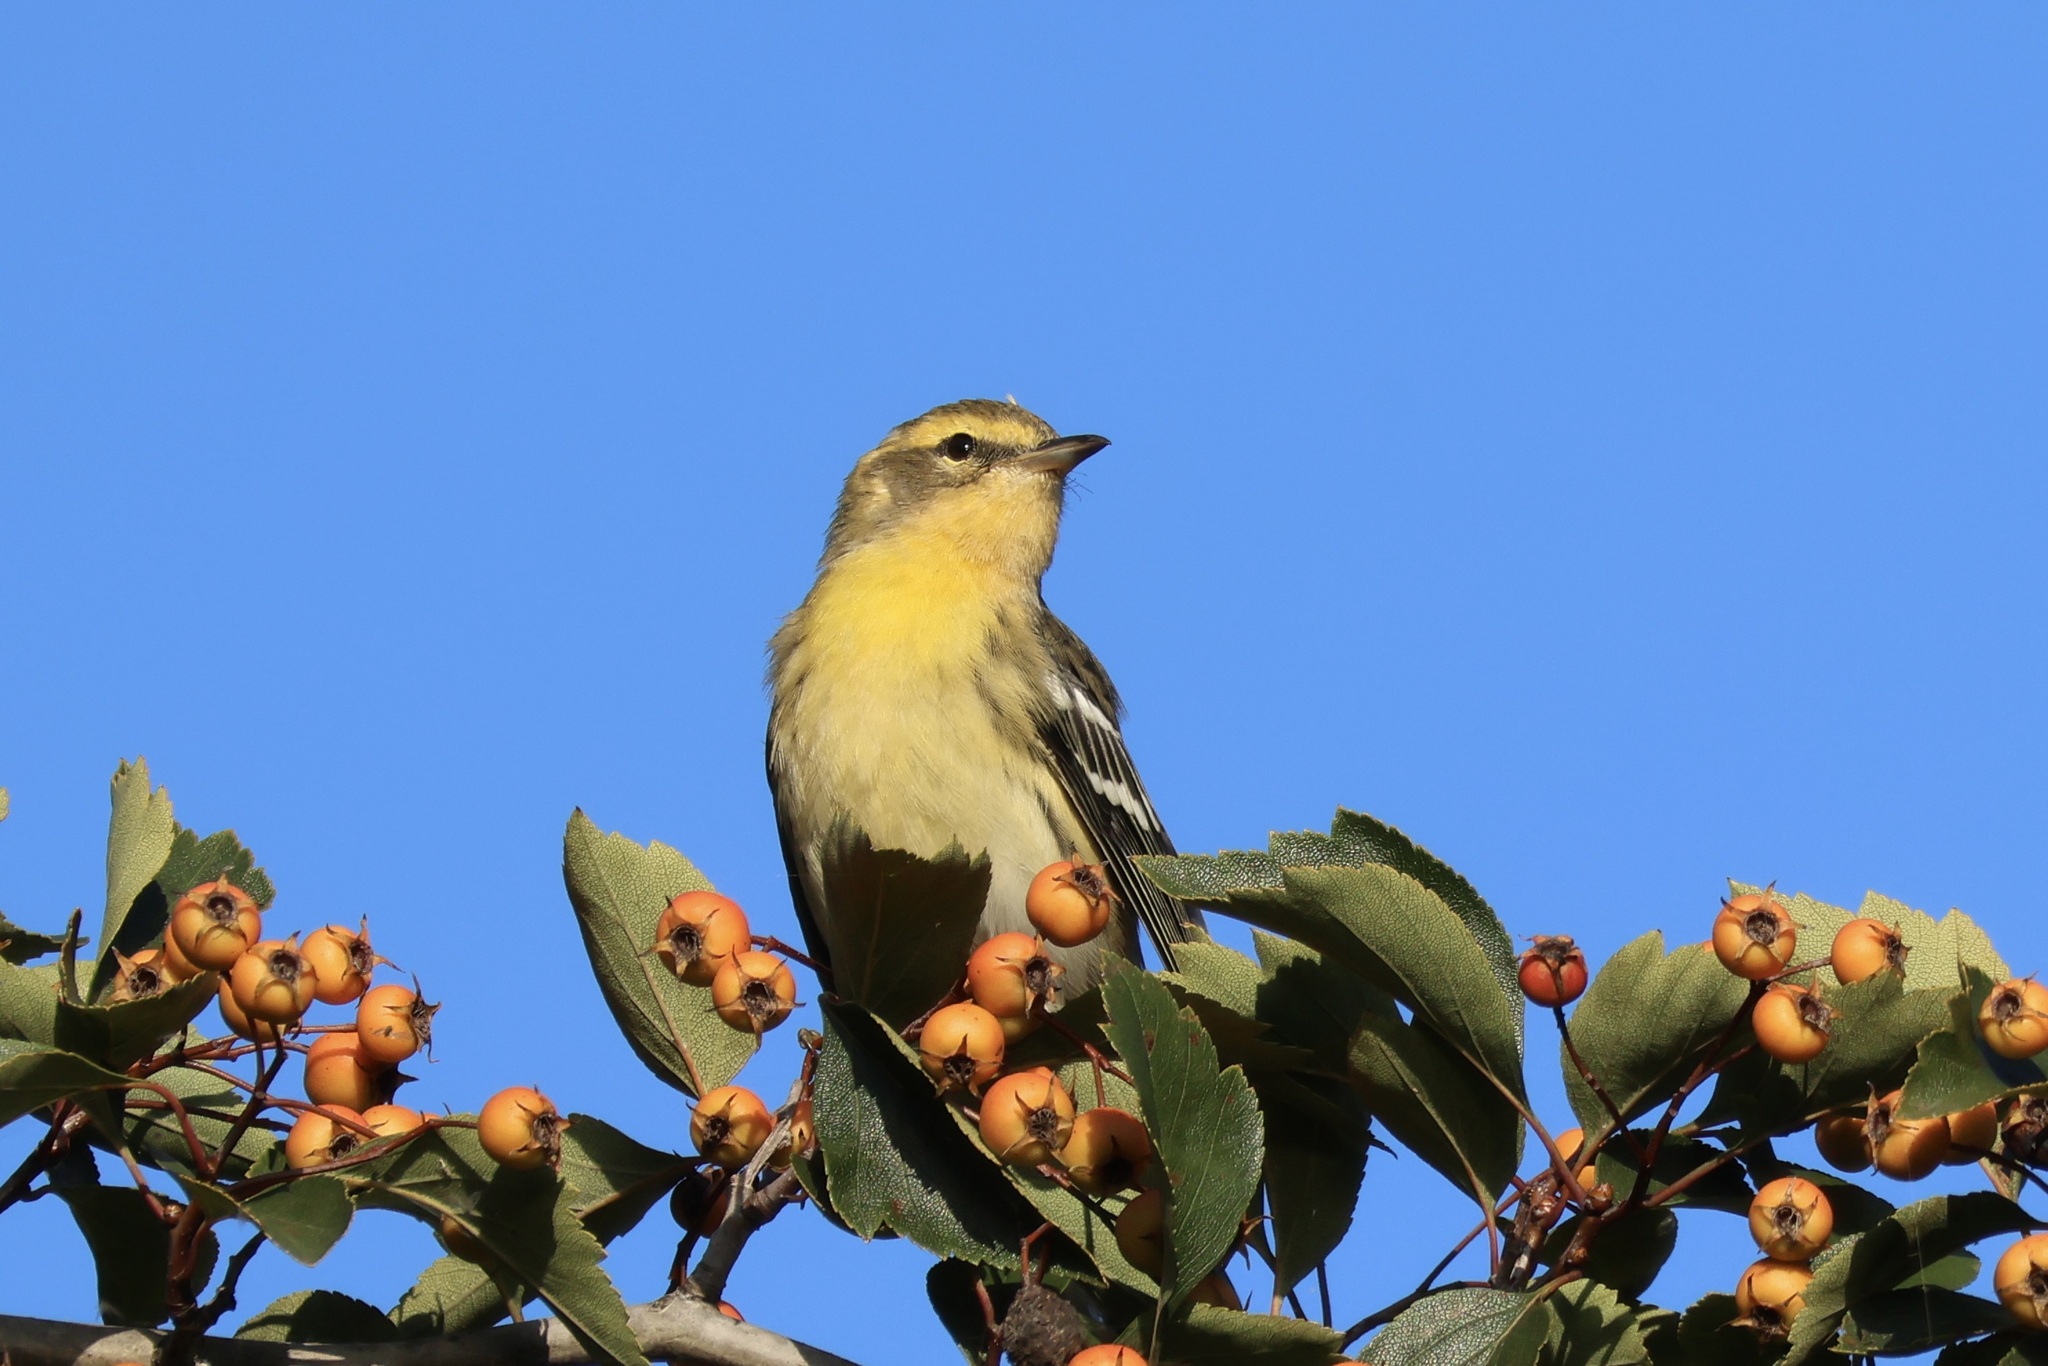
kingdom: Animalia
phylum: Chordata
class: Aves
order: Passeriformes
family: Parulidae
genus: Setophaga
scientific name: Setophaga fusca
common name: Blackburnian warbler
